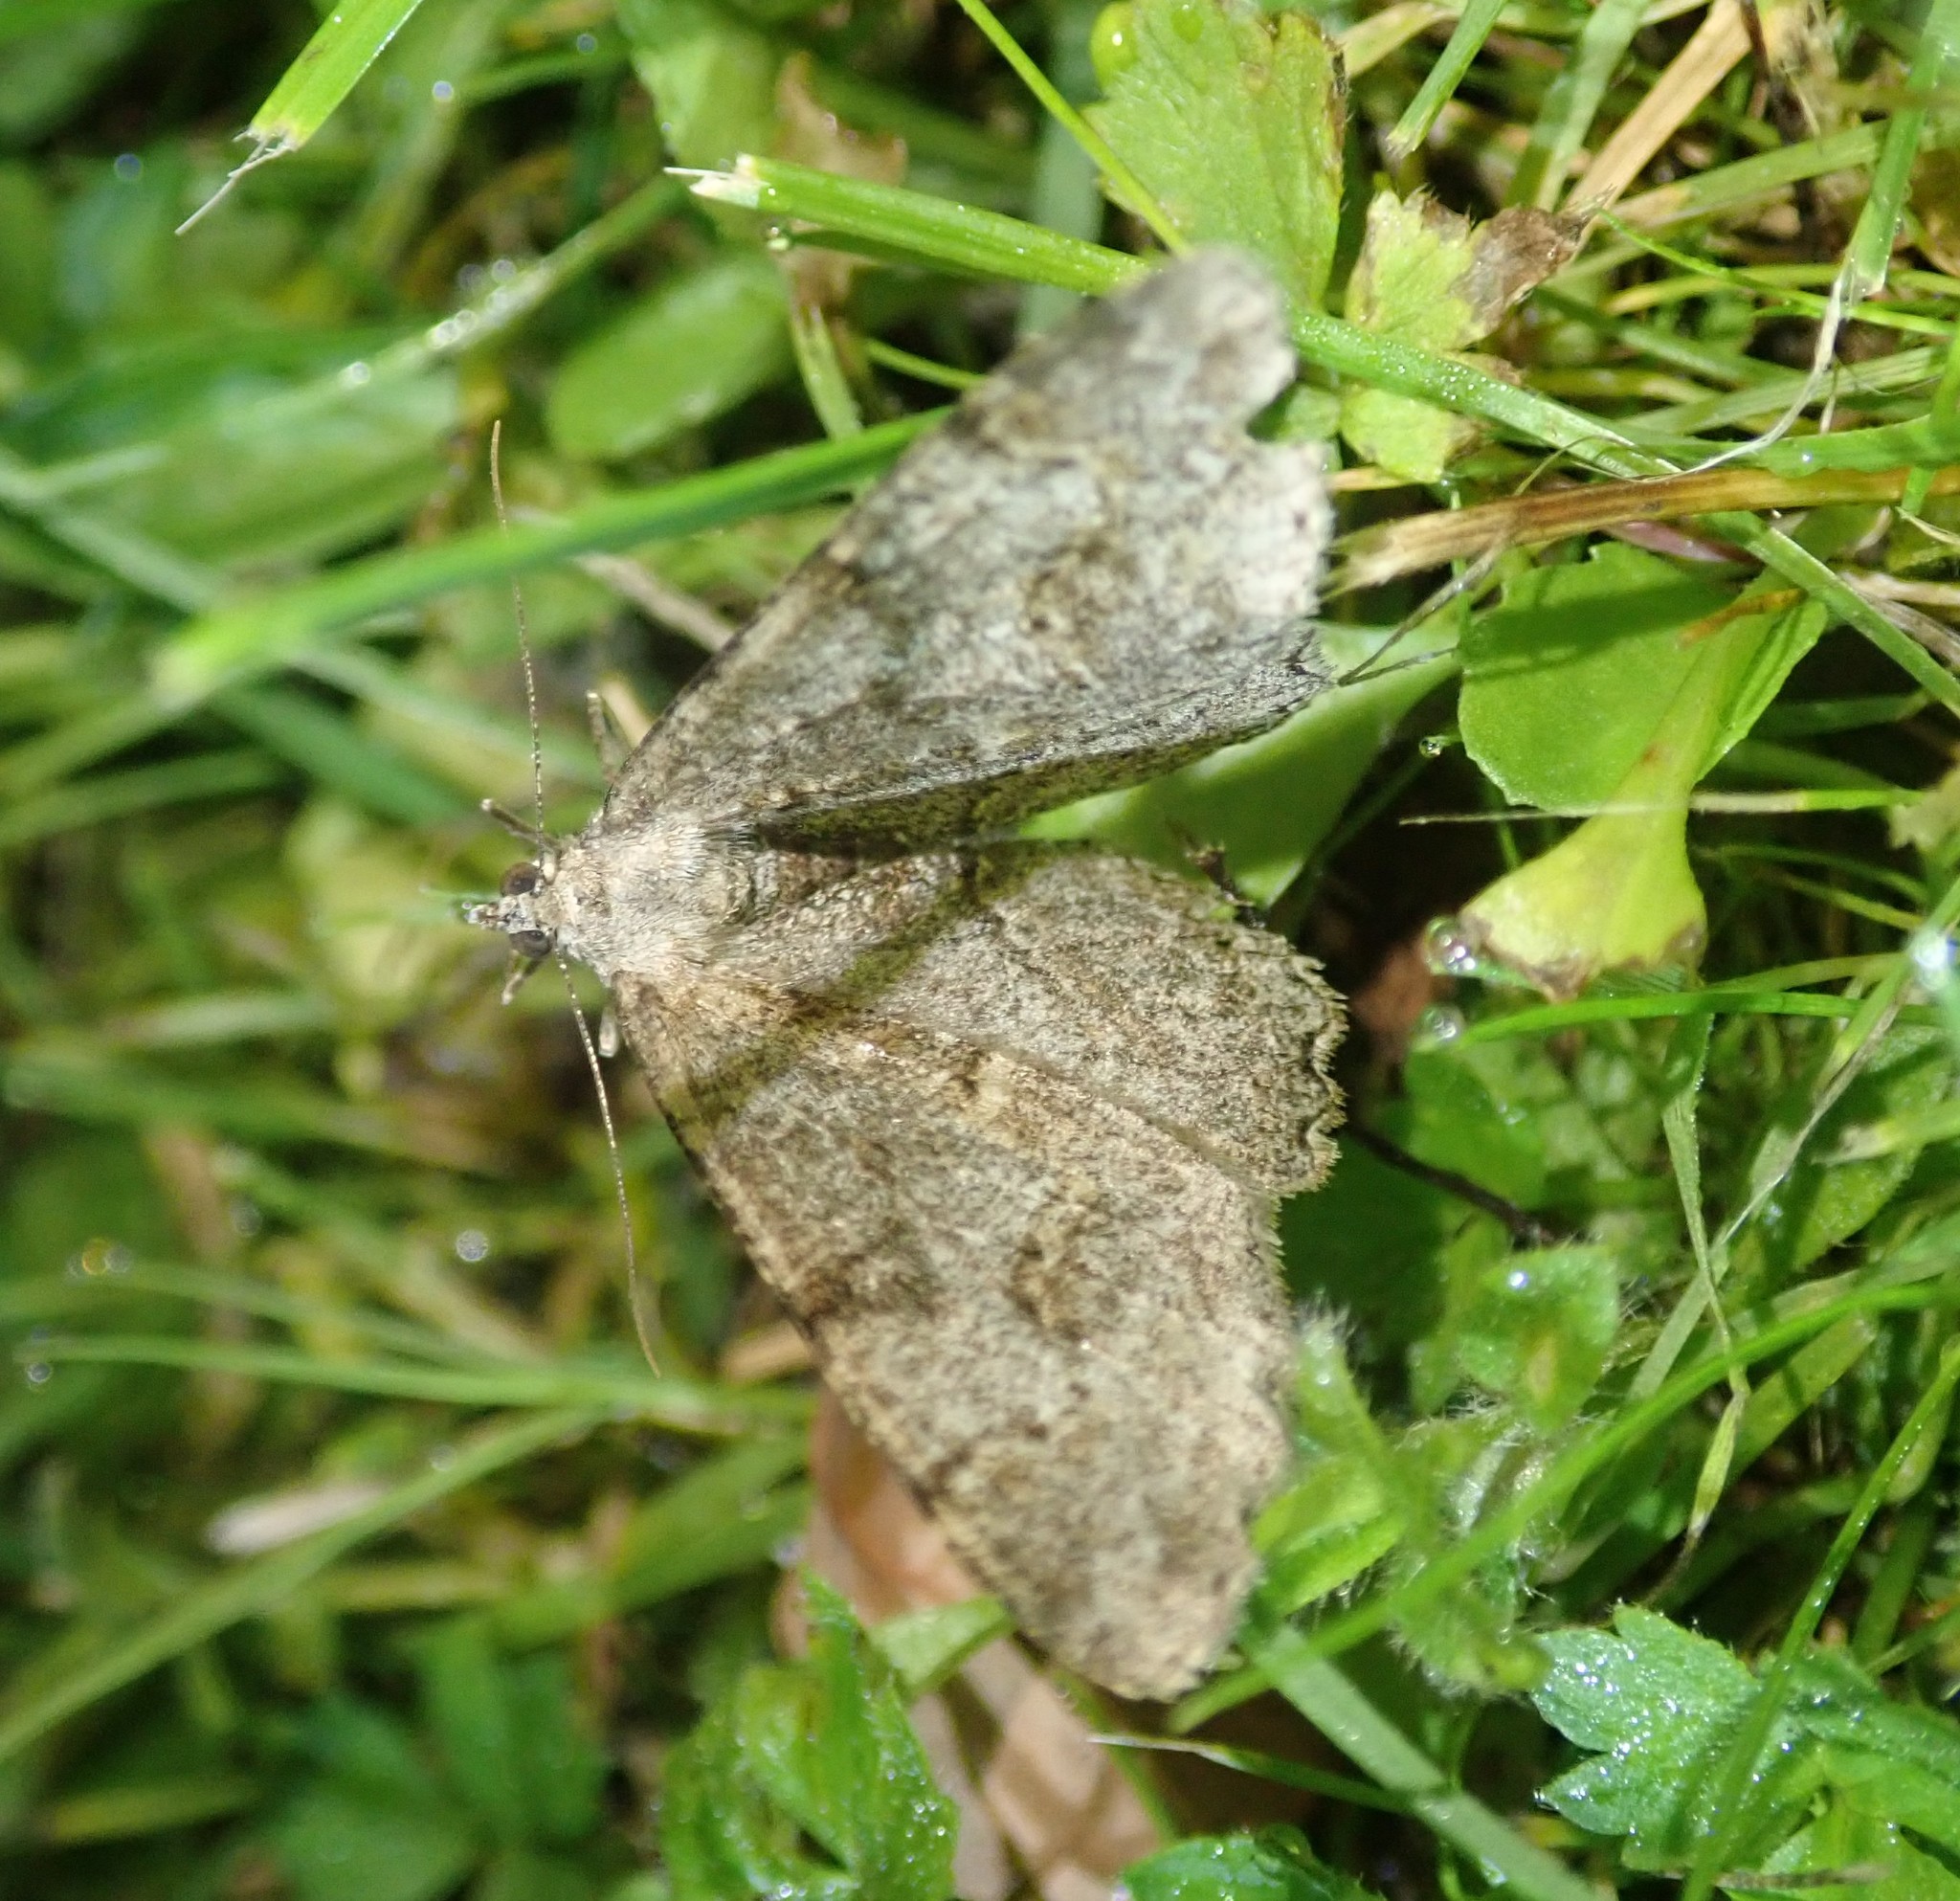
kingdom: Animalia
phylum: Arthropoda
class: Insecta
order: Lepidoptera
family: Geometridae
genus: Alcis
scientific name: Alcis repandata
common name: Mottled beauty
